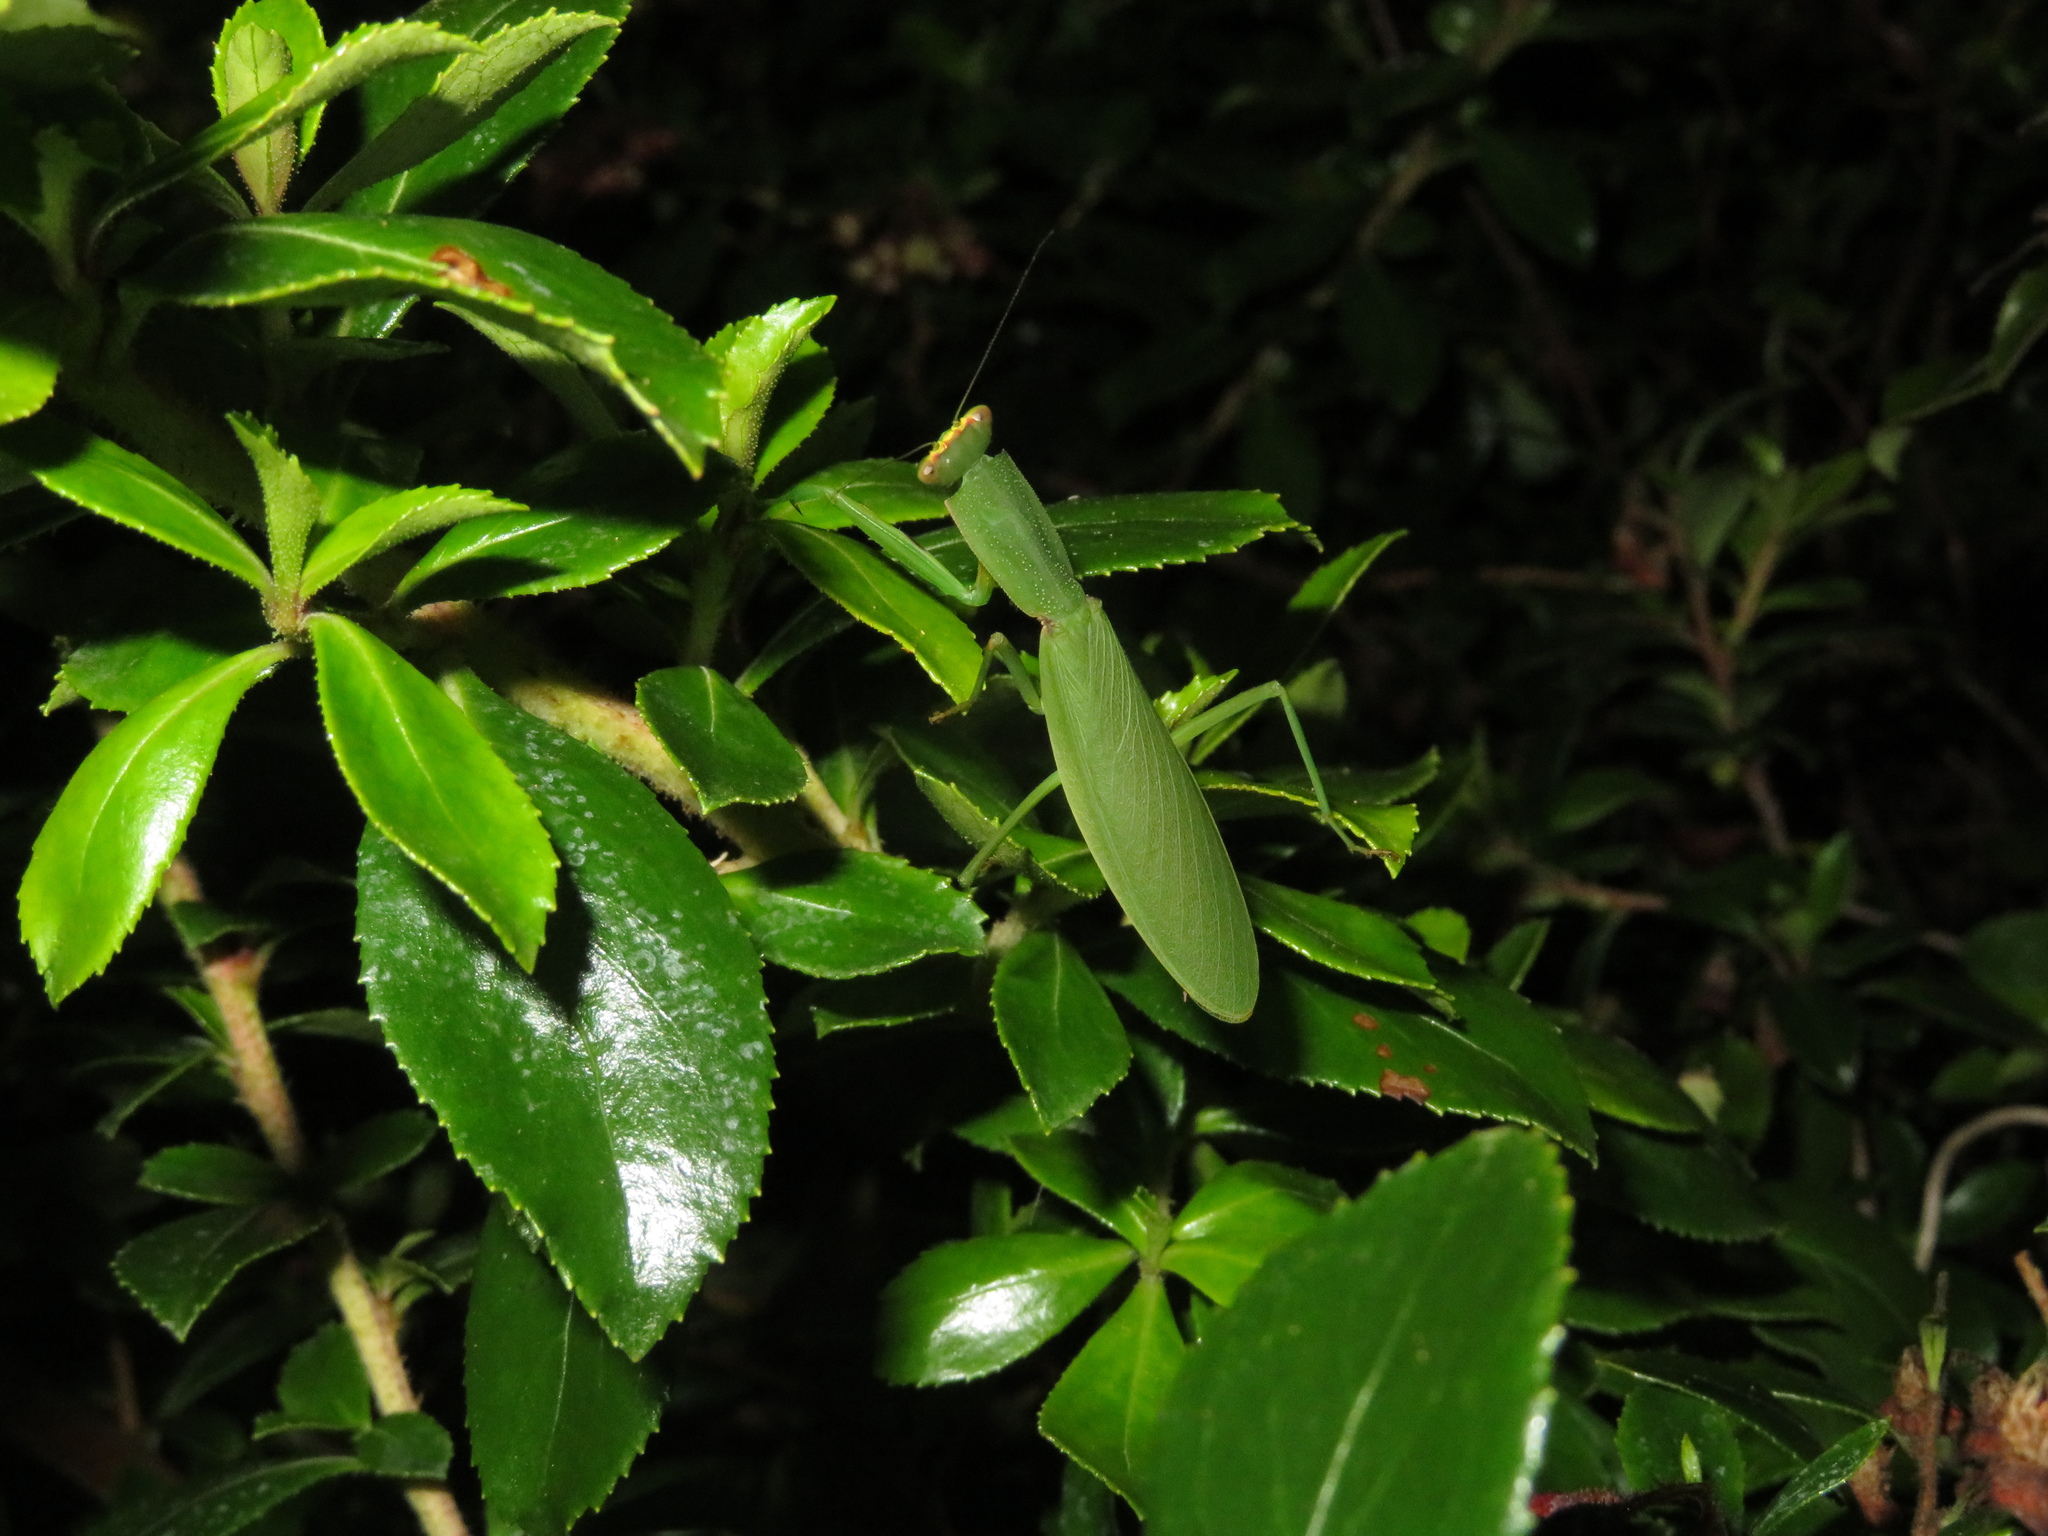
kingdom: Animalia
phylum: Arthropoda
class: Insecta
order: Mantodea
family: Mantidae
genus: Orthodera
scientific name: Orthodera novaezealandiae
